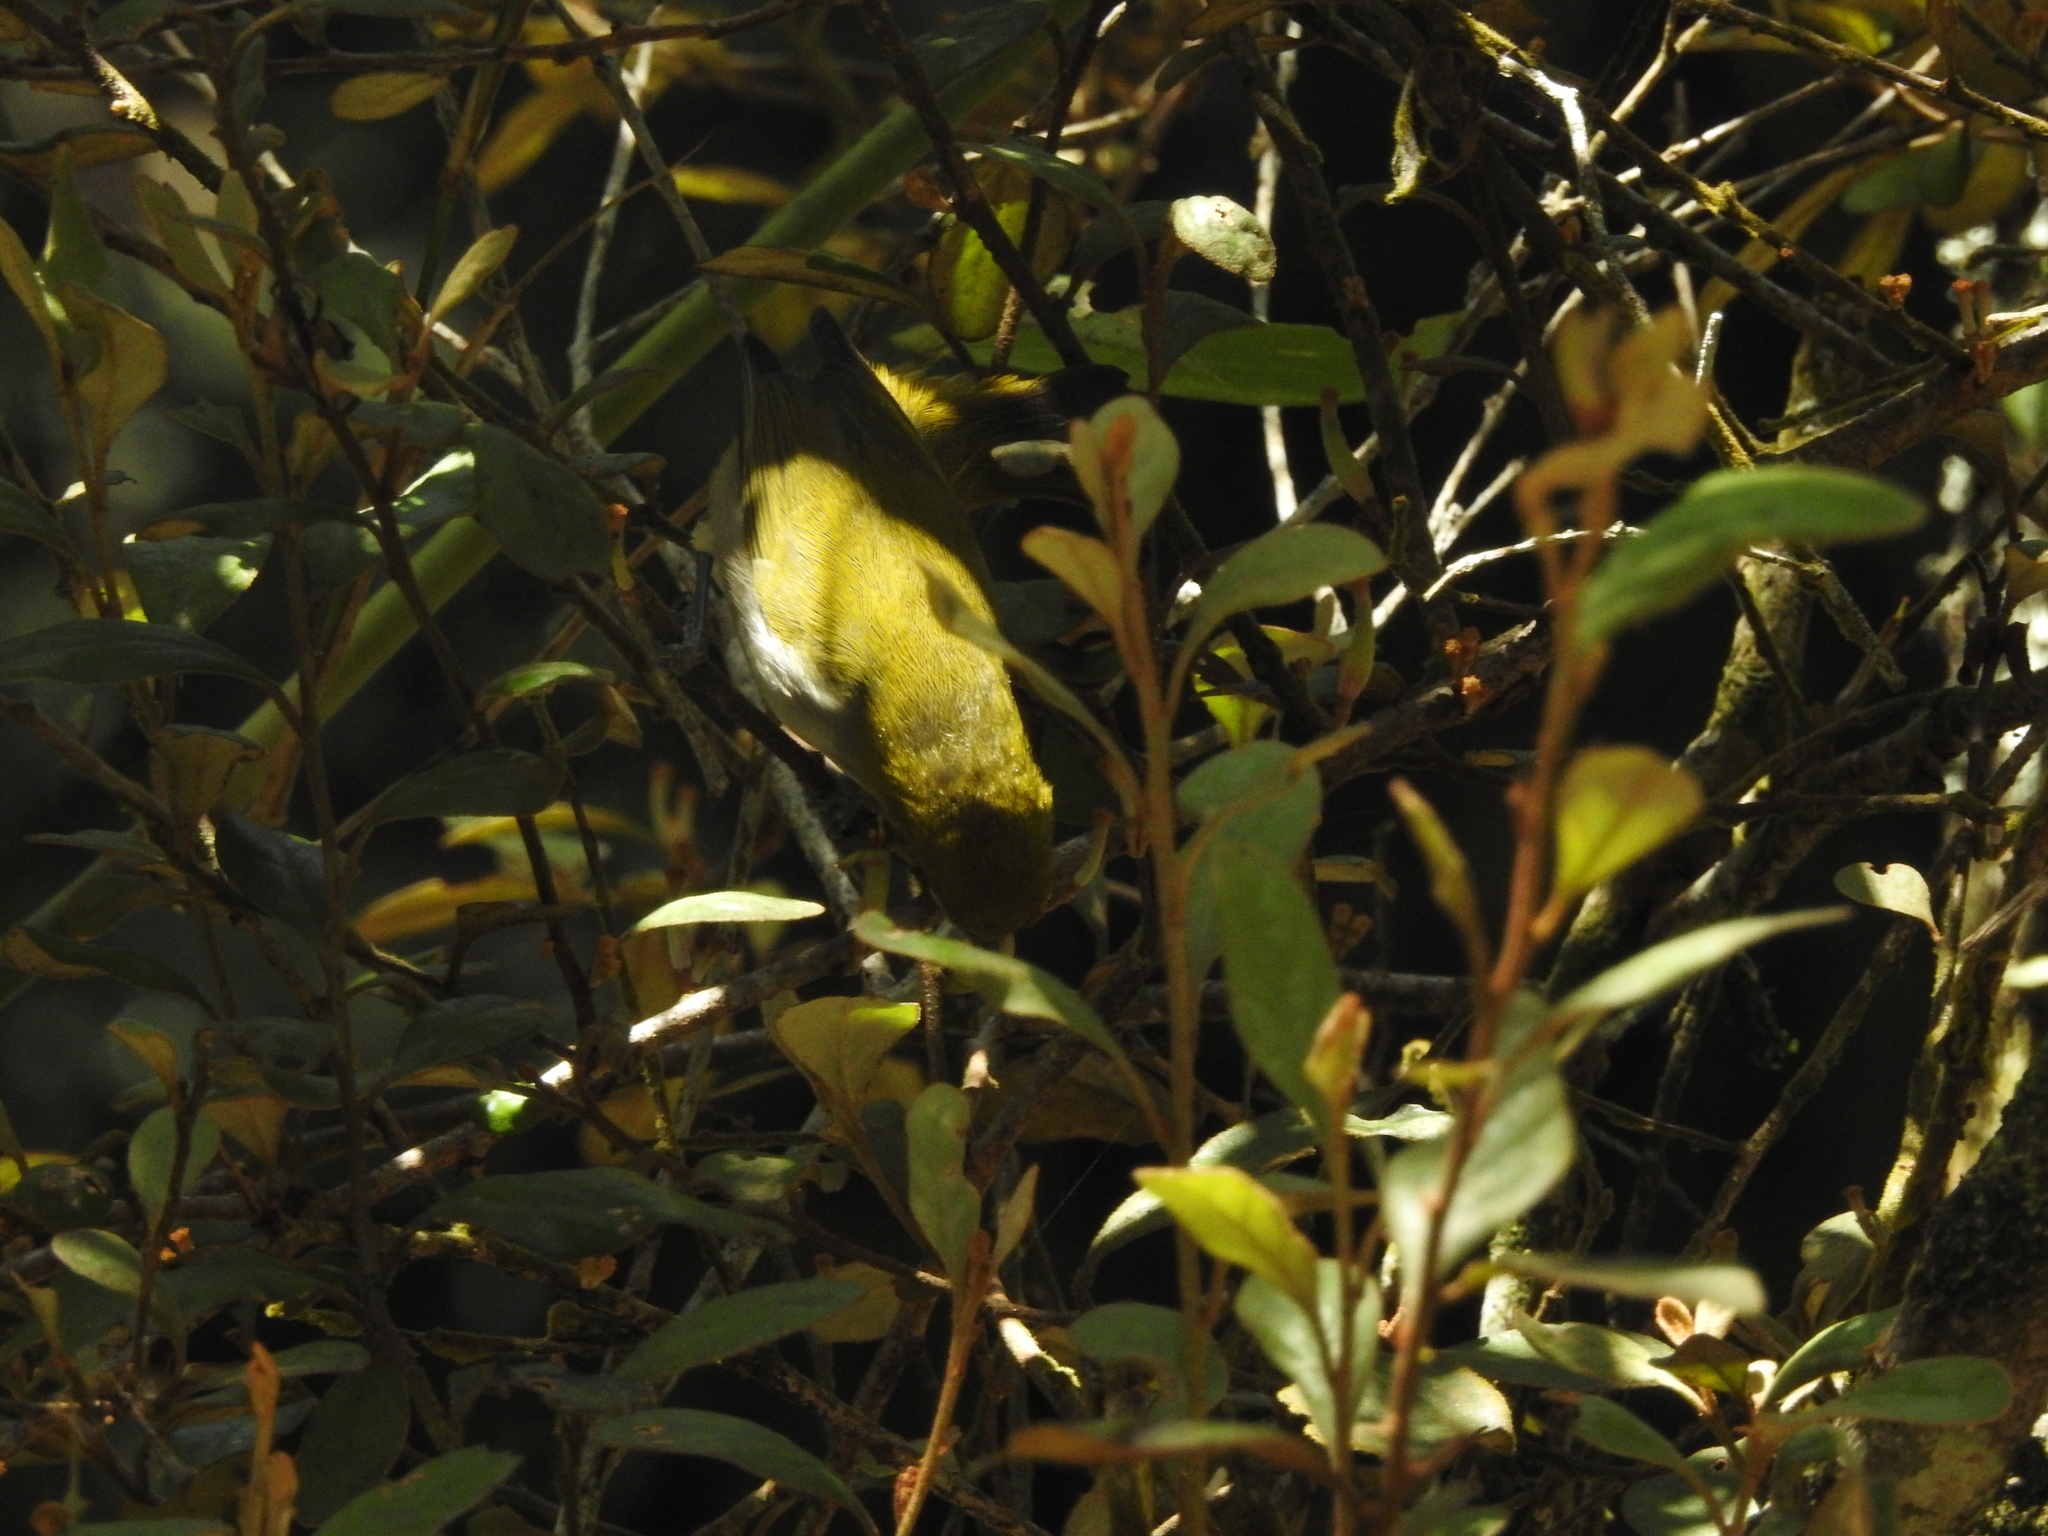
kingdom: Animalia
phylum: Chordata
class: Aves
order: Passeriformes
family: Zosteropidae
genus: Zosterops
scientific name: Zosterops palpebrosus
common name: Oriental white-eye
